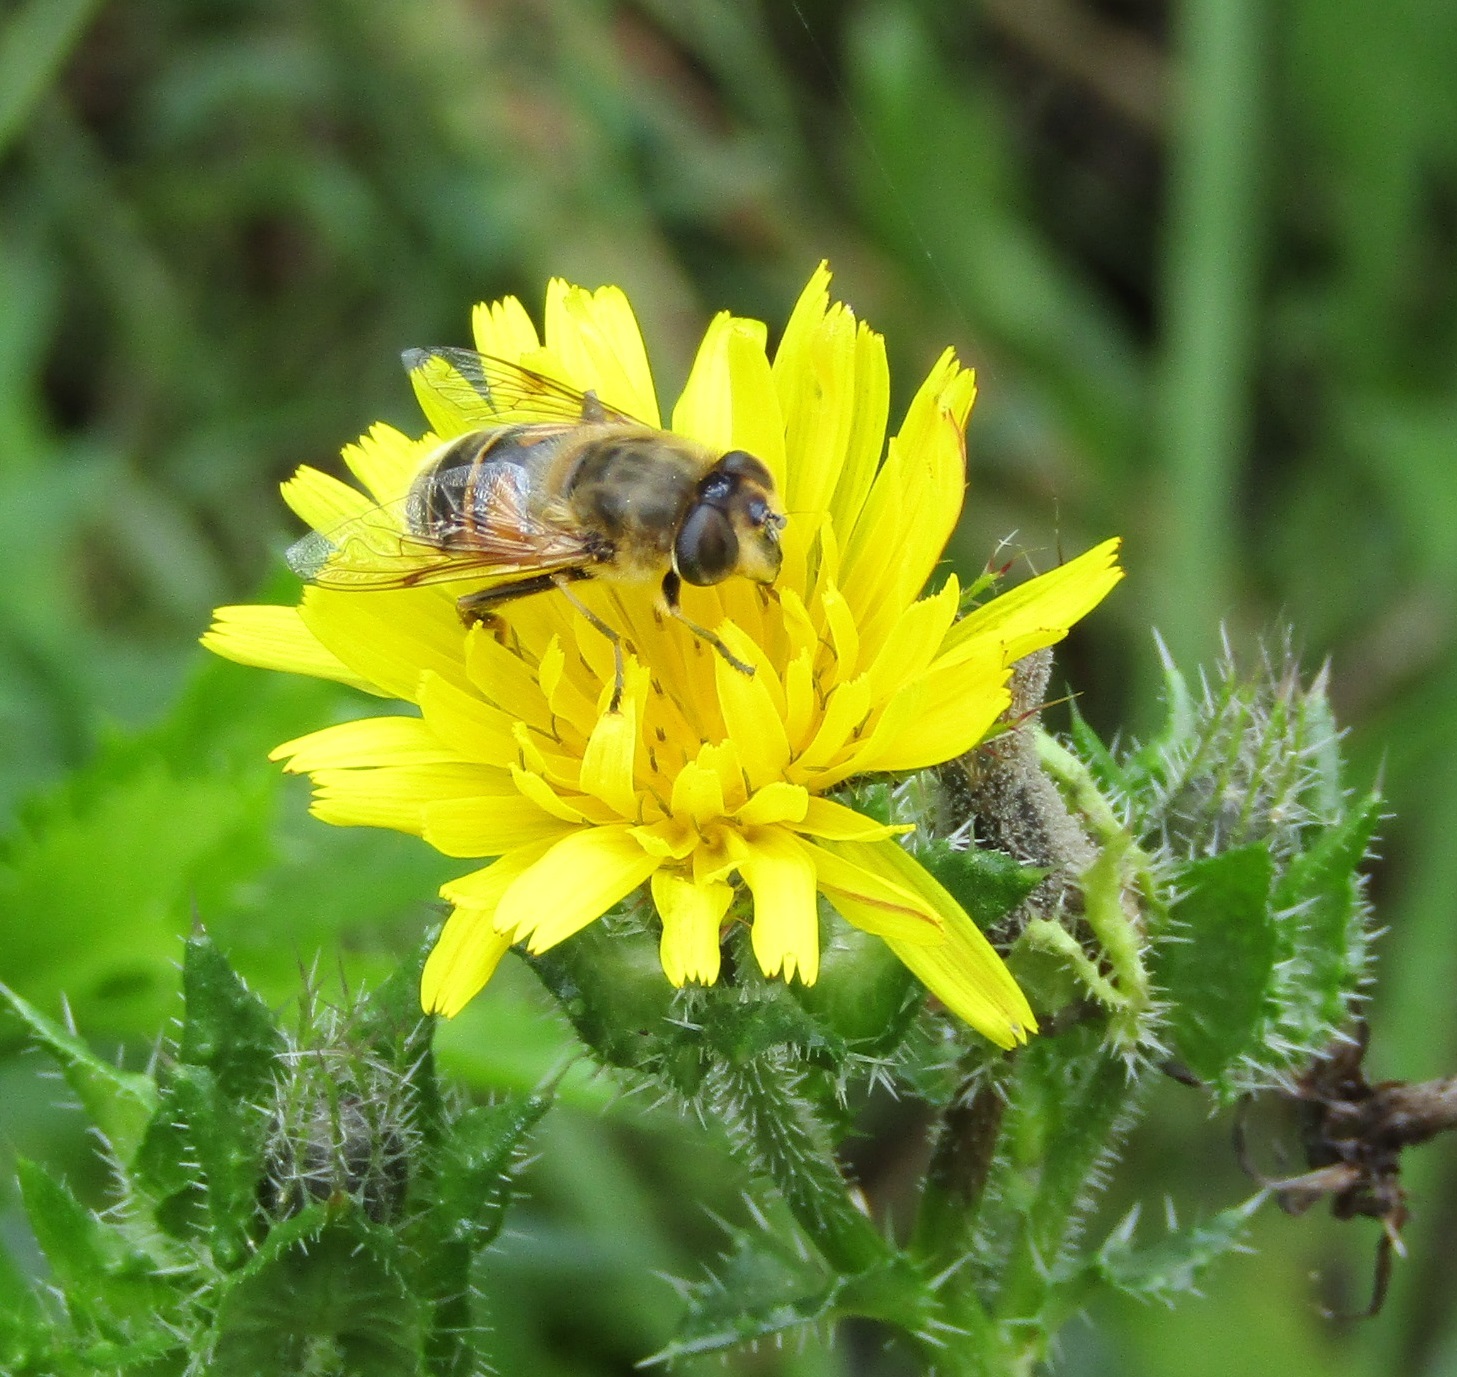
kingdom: Animalia
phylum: Arthropoda
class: Insecta
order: Diptera
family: Syrphidae
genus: Eristalis
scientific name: Eristalis tenax
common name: Drone fly
